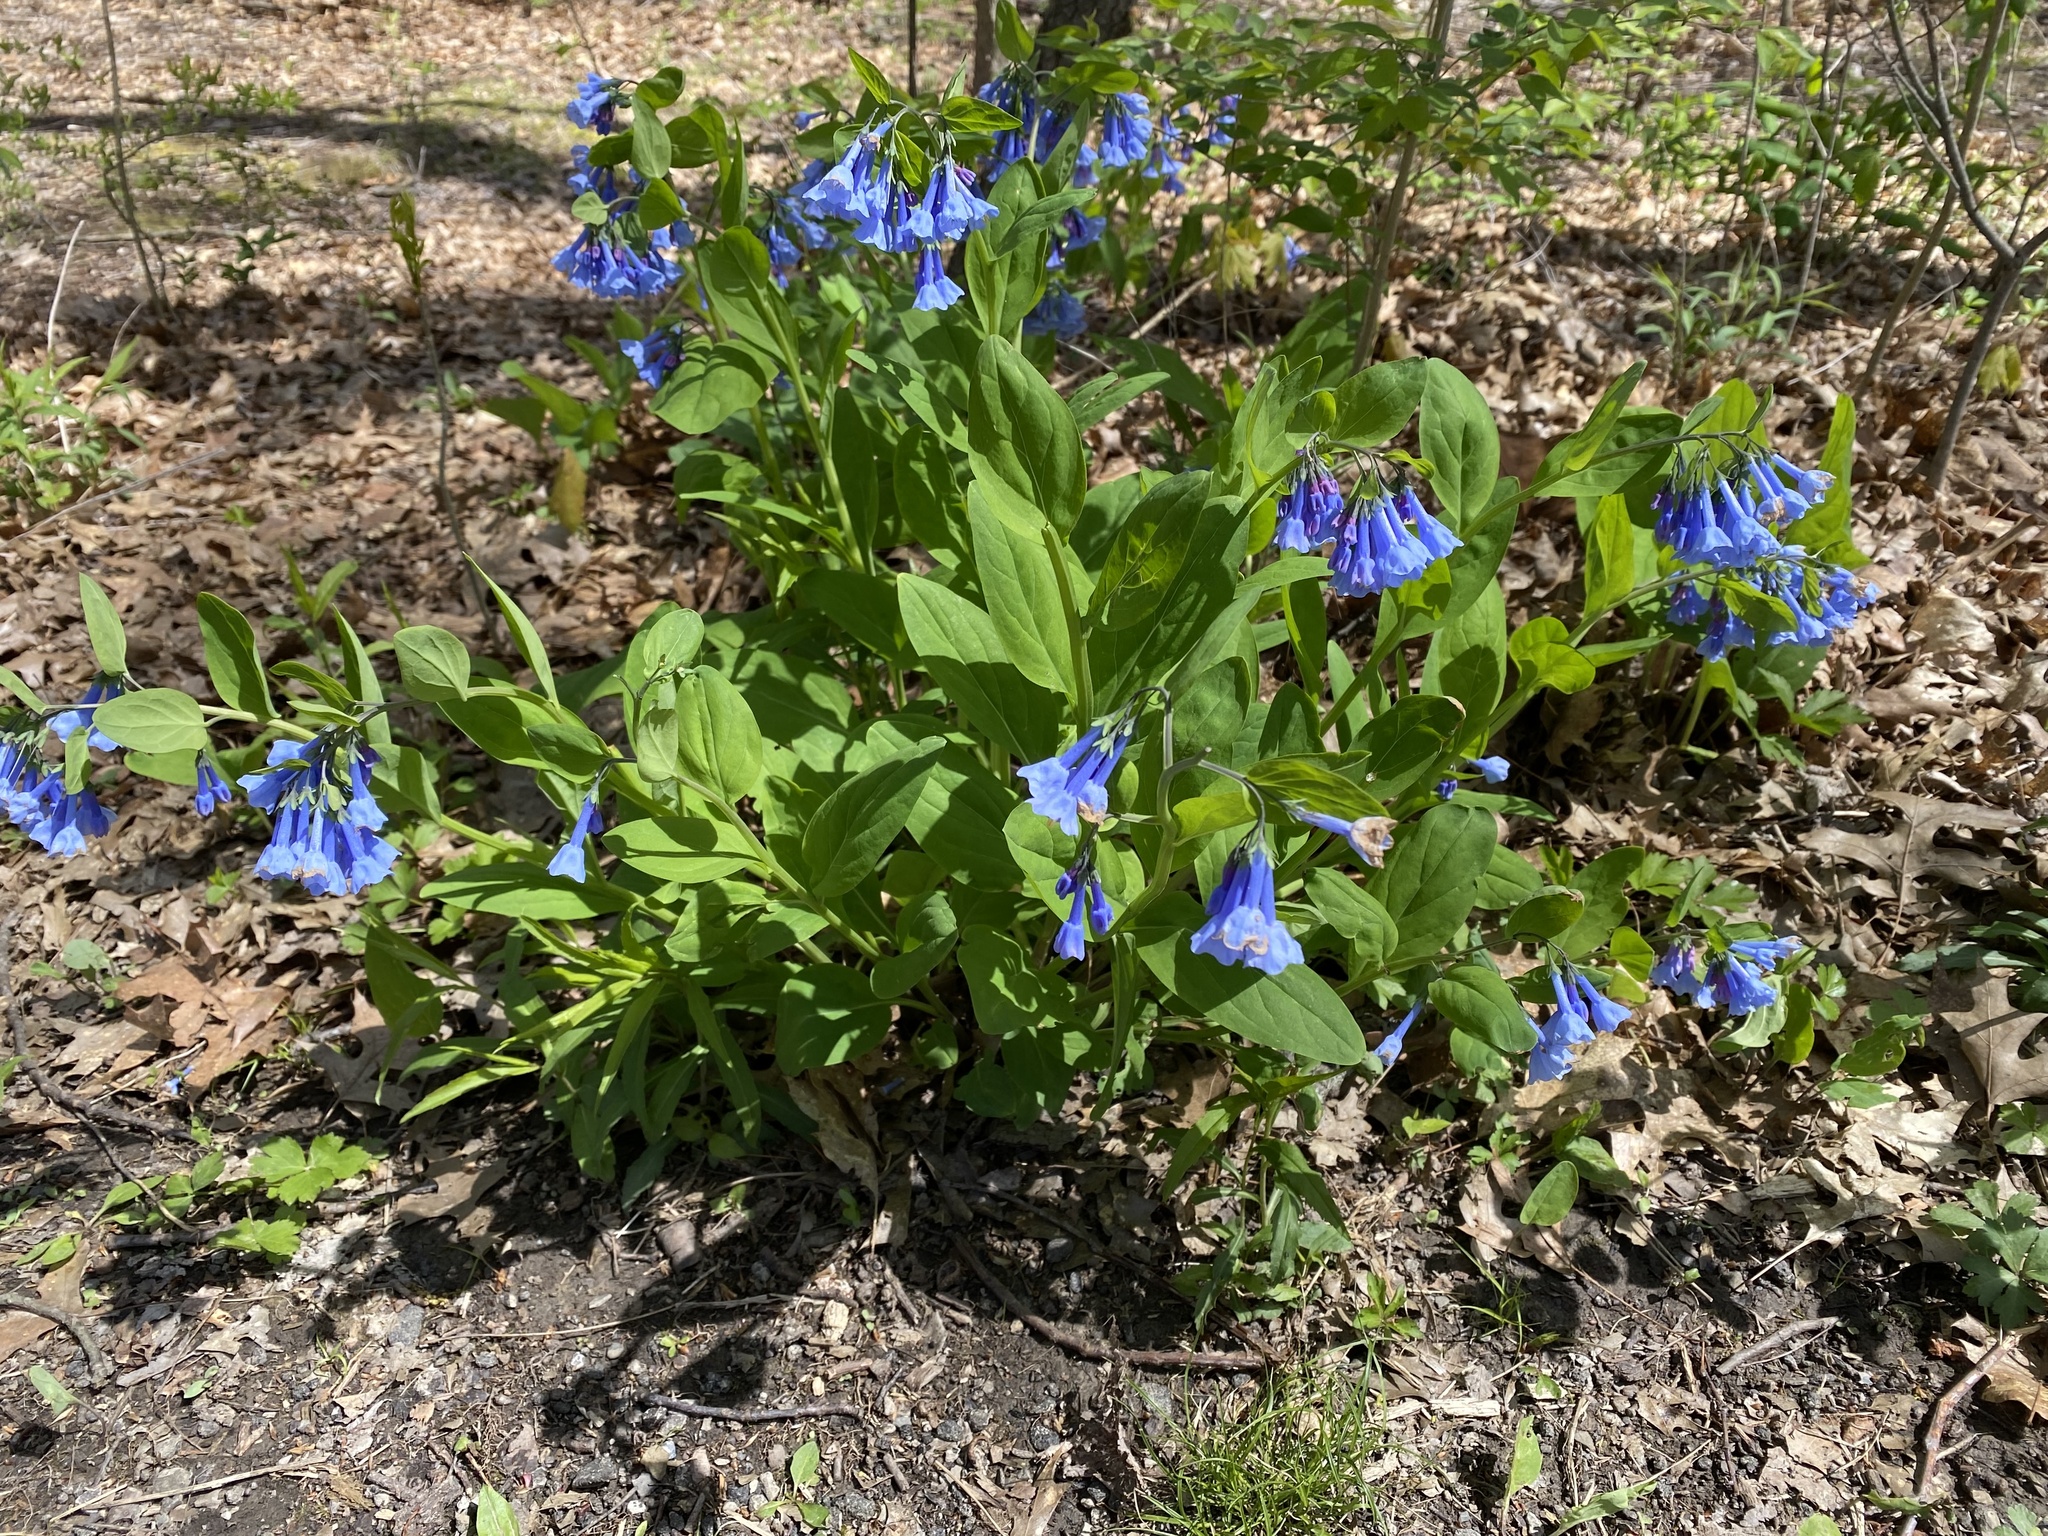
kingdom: Plantae
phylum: Tracheophyta
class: Magnoliopsida
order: Boraginales
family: Boraginaceae
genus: Mertensia
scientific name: Mertensia virginica
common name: Virginia bluebells
